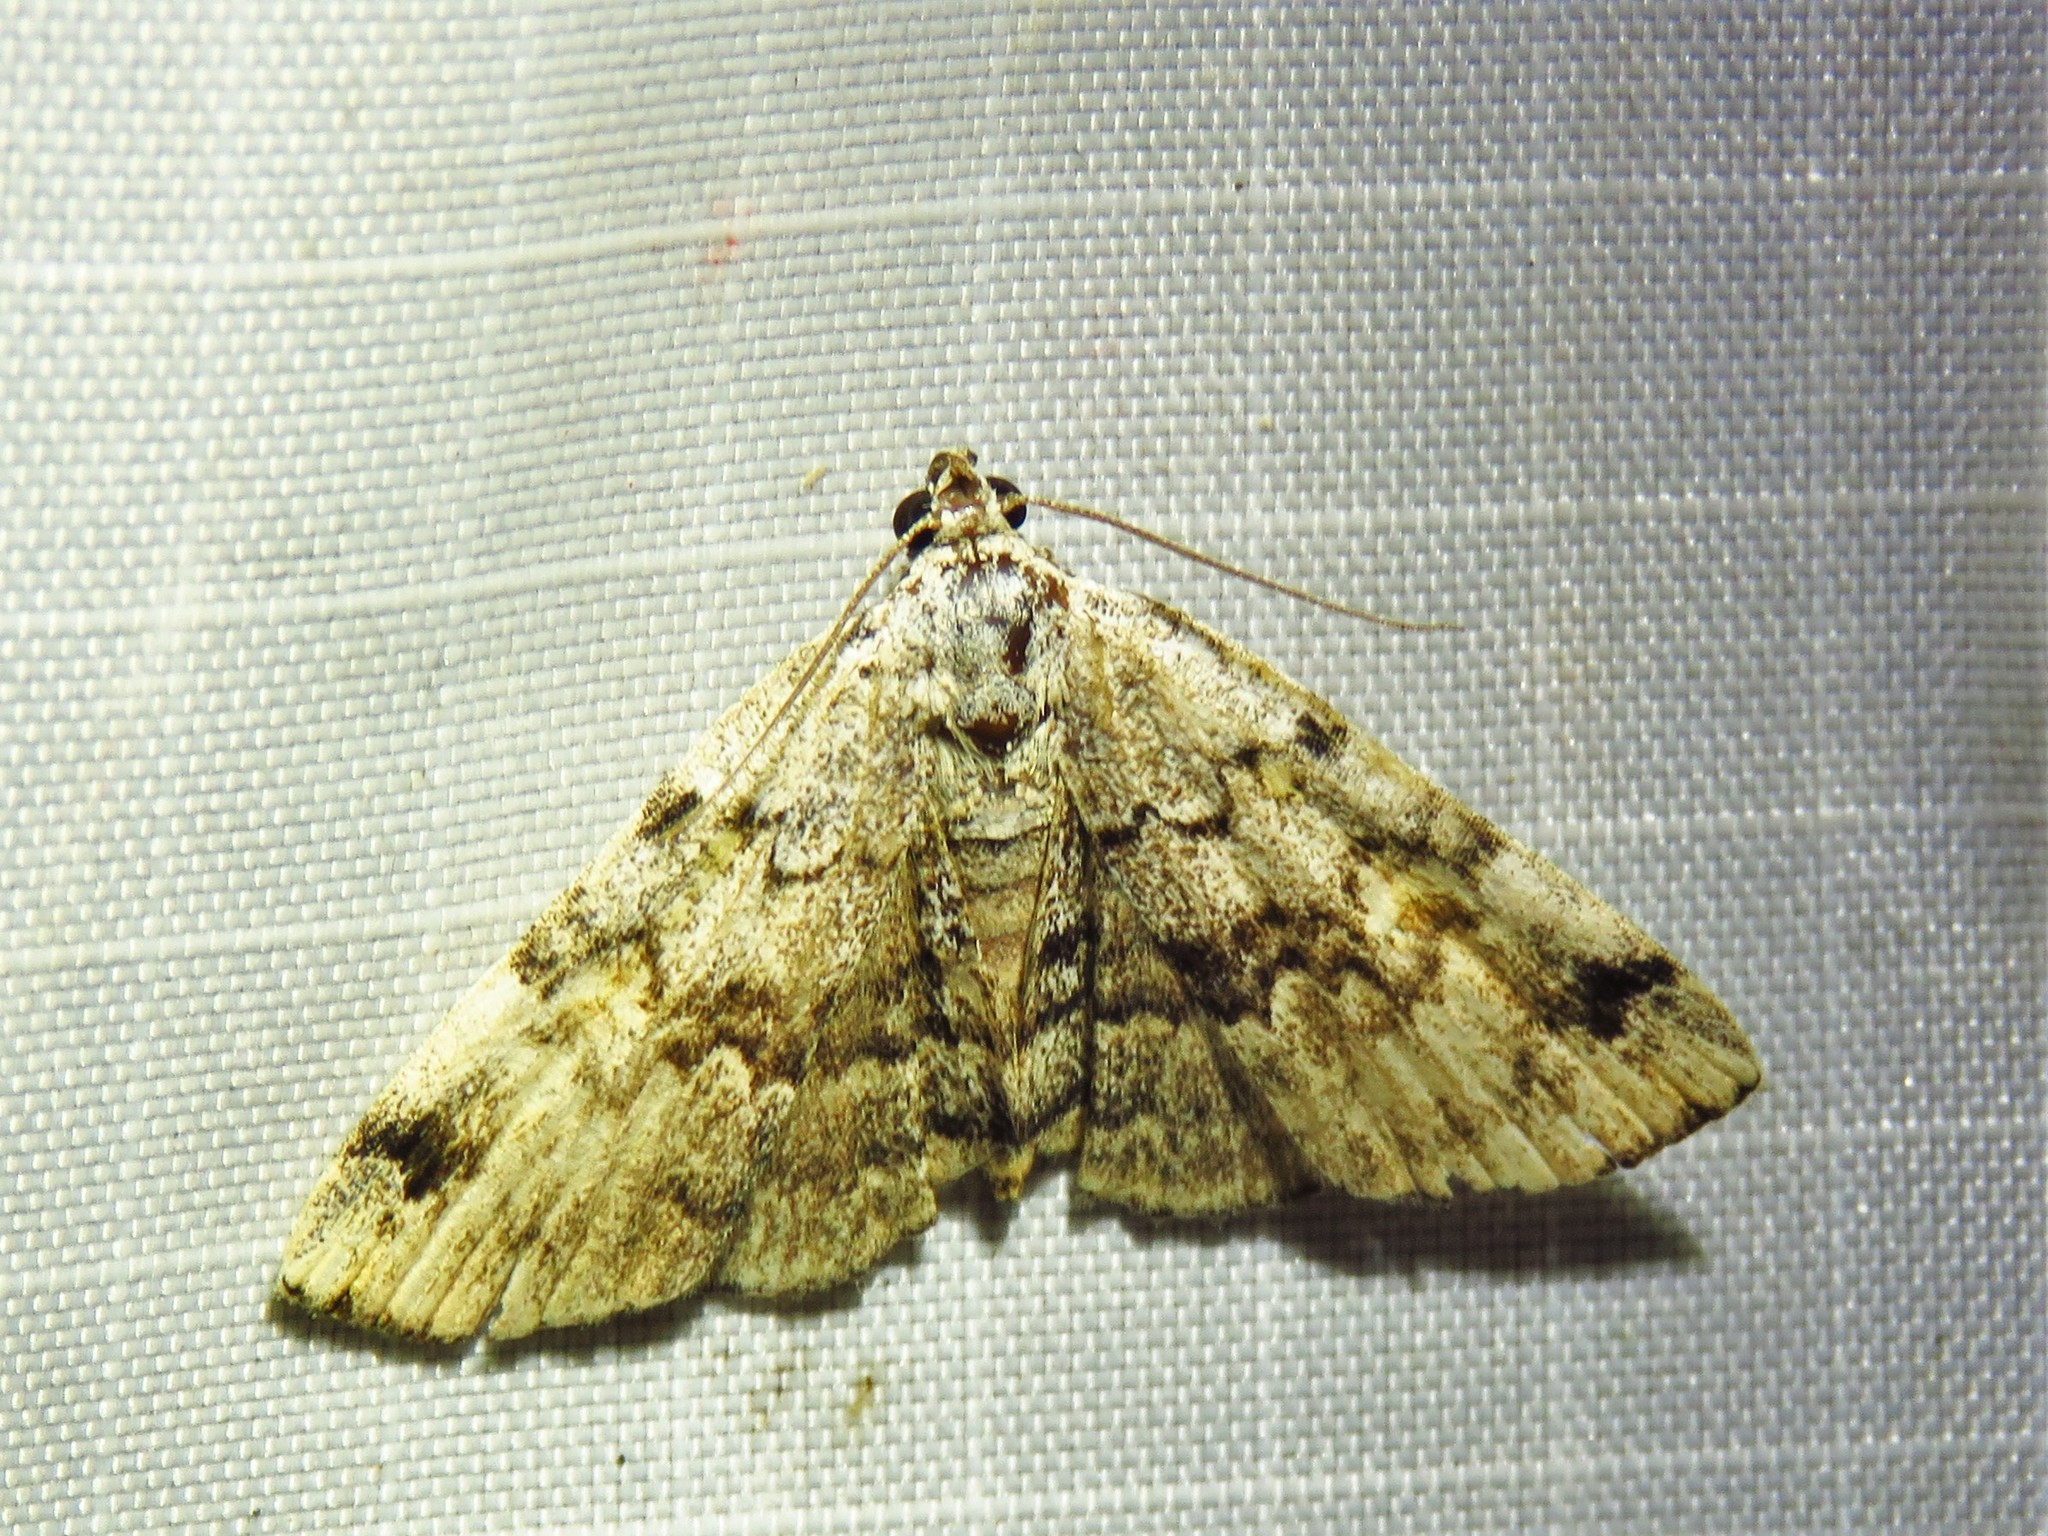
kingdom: Animalia
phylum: Arthropoda
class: Insecta
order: Lepidoptera
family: Erebidae
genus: Idia
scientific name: Idia americalis
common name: American idia moth
